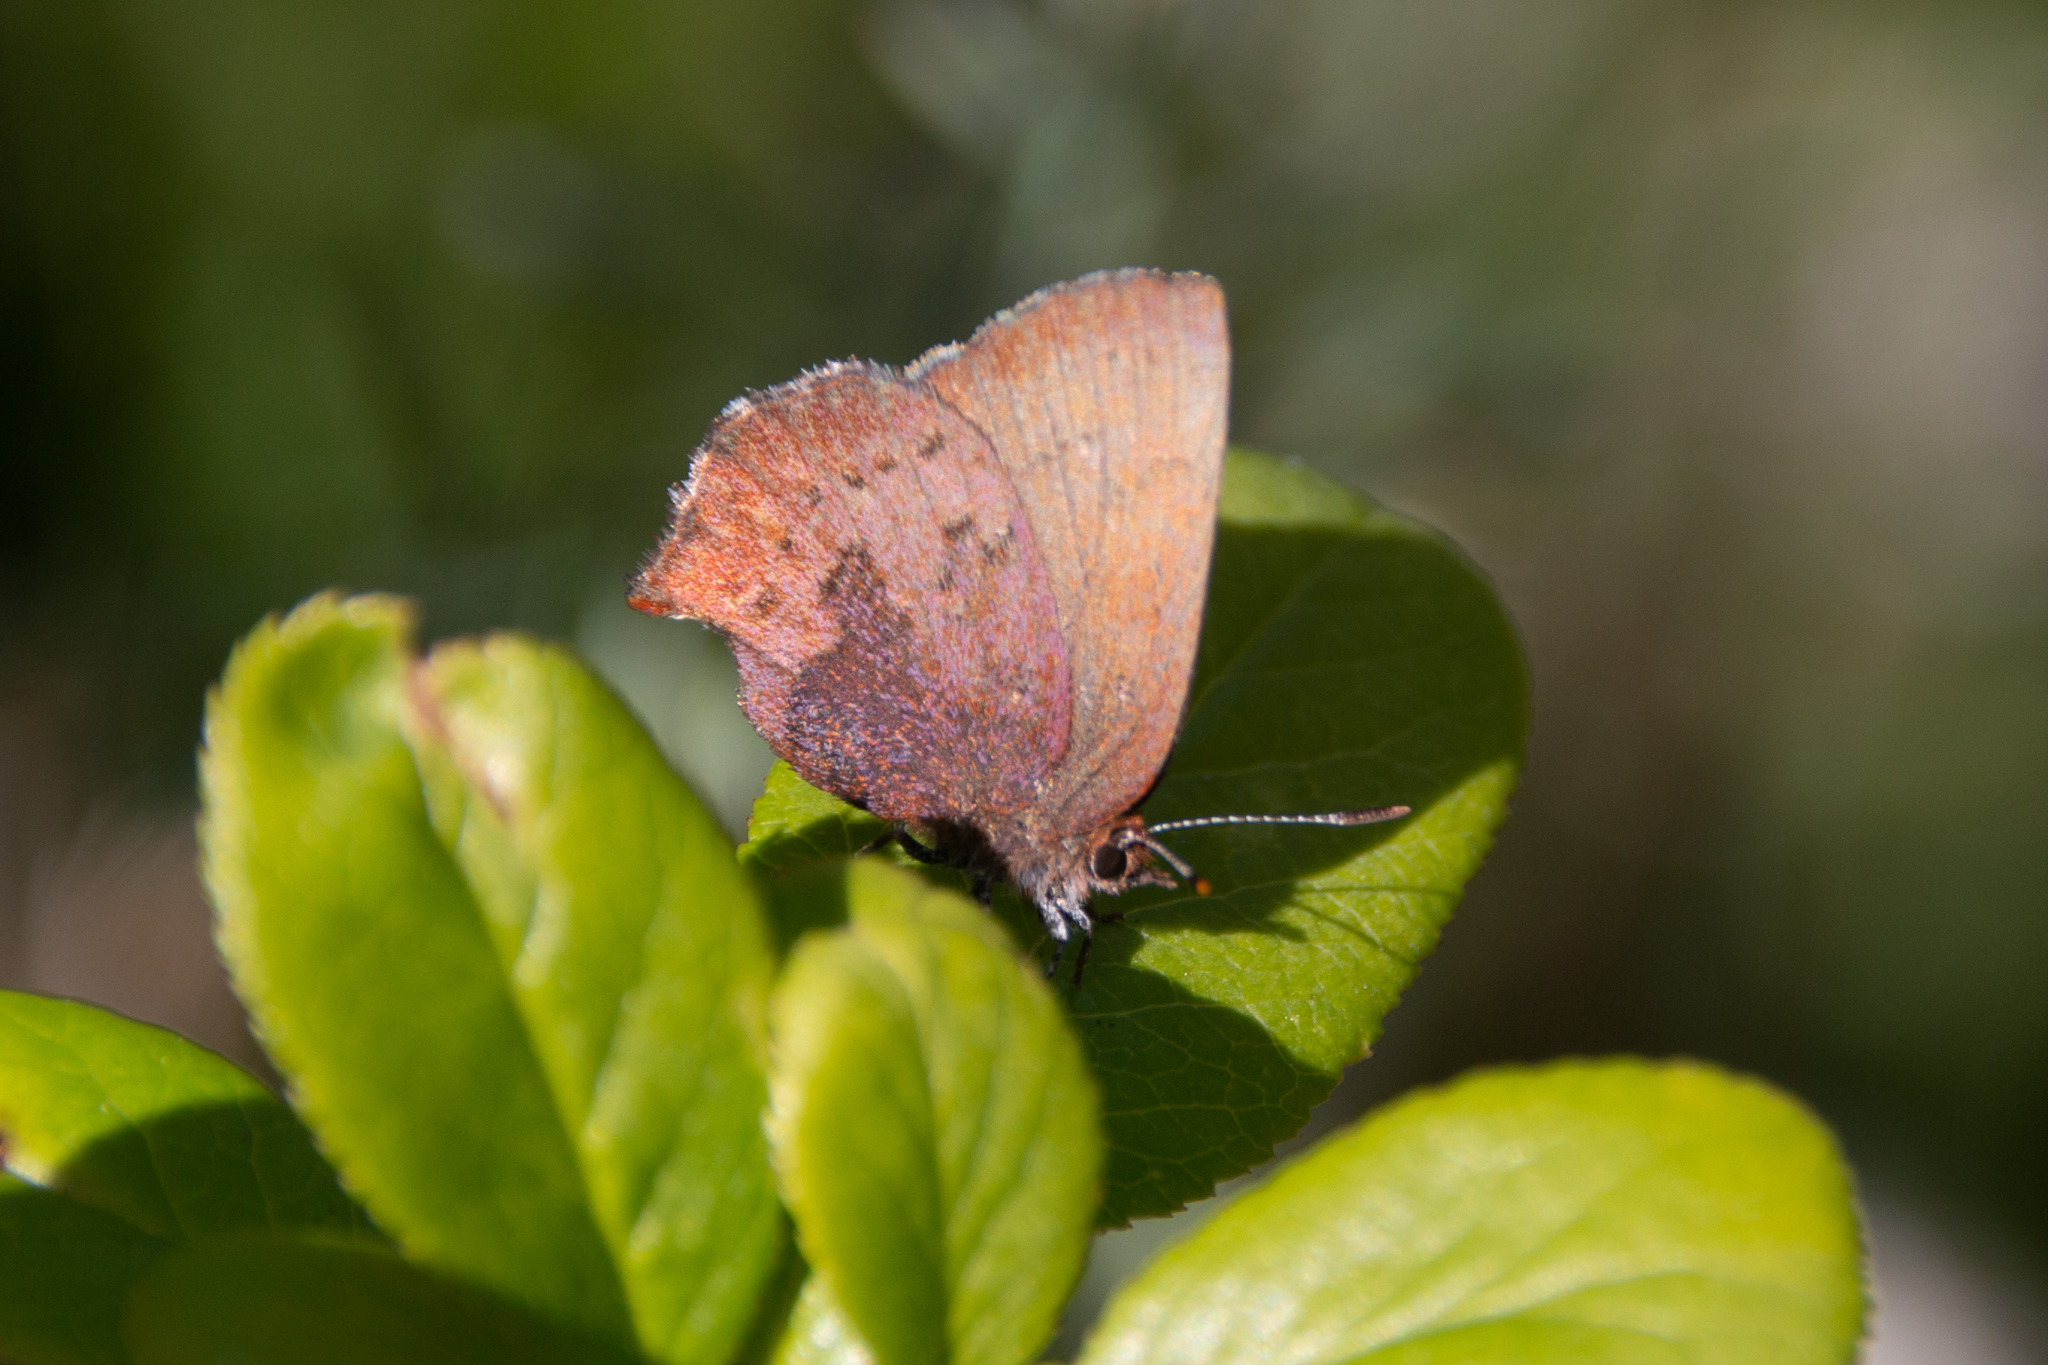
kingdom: Animalia
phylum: Arthropoda
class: Insecta
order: Lepidoptera
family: Lycaenidae
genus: Incisalia
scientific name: Incisalia irioides
